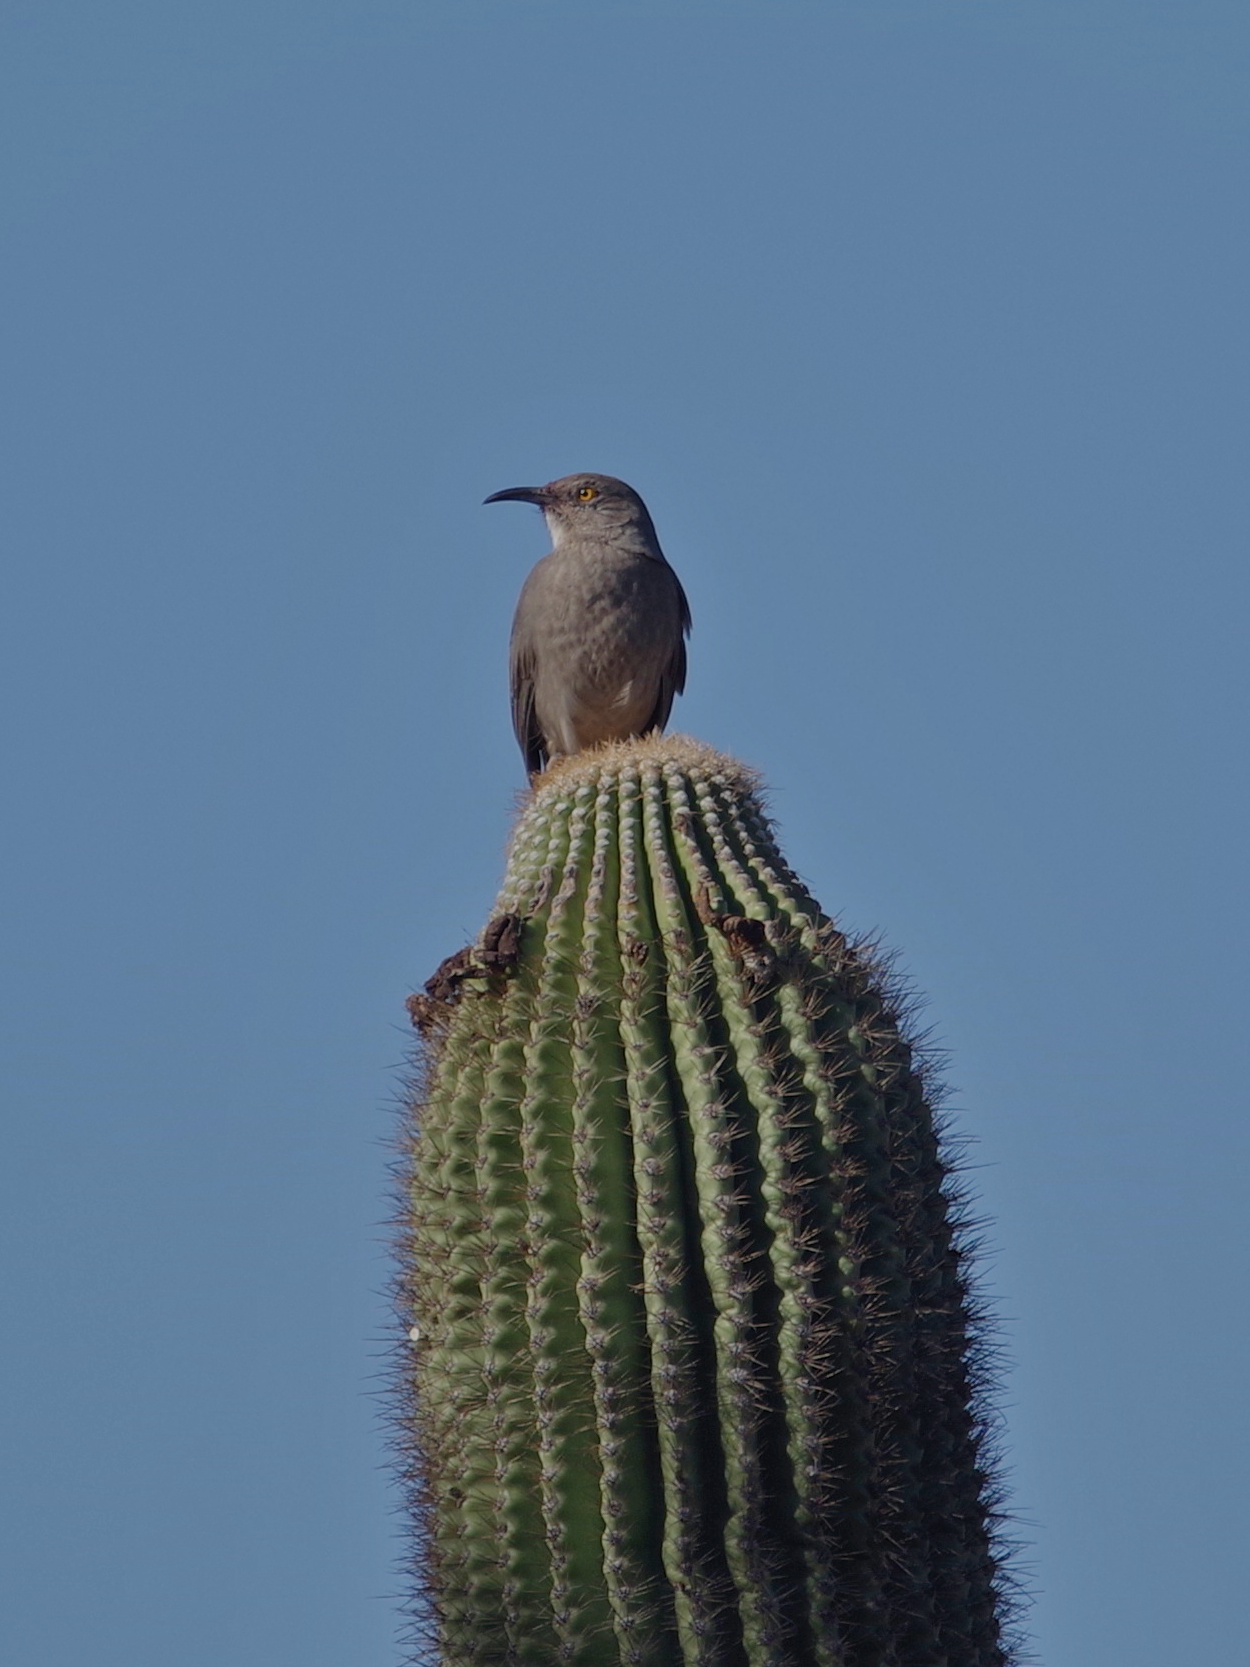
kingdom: Animalia
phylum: Chordata
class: Aves
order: Passeriformes
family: Mimidae
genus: Toxostoma
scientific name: Toxostoma curvirostre
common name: Curve-billed thrasher
